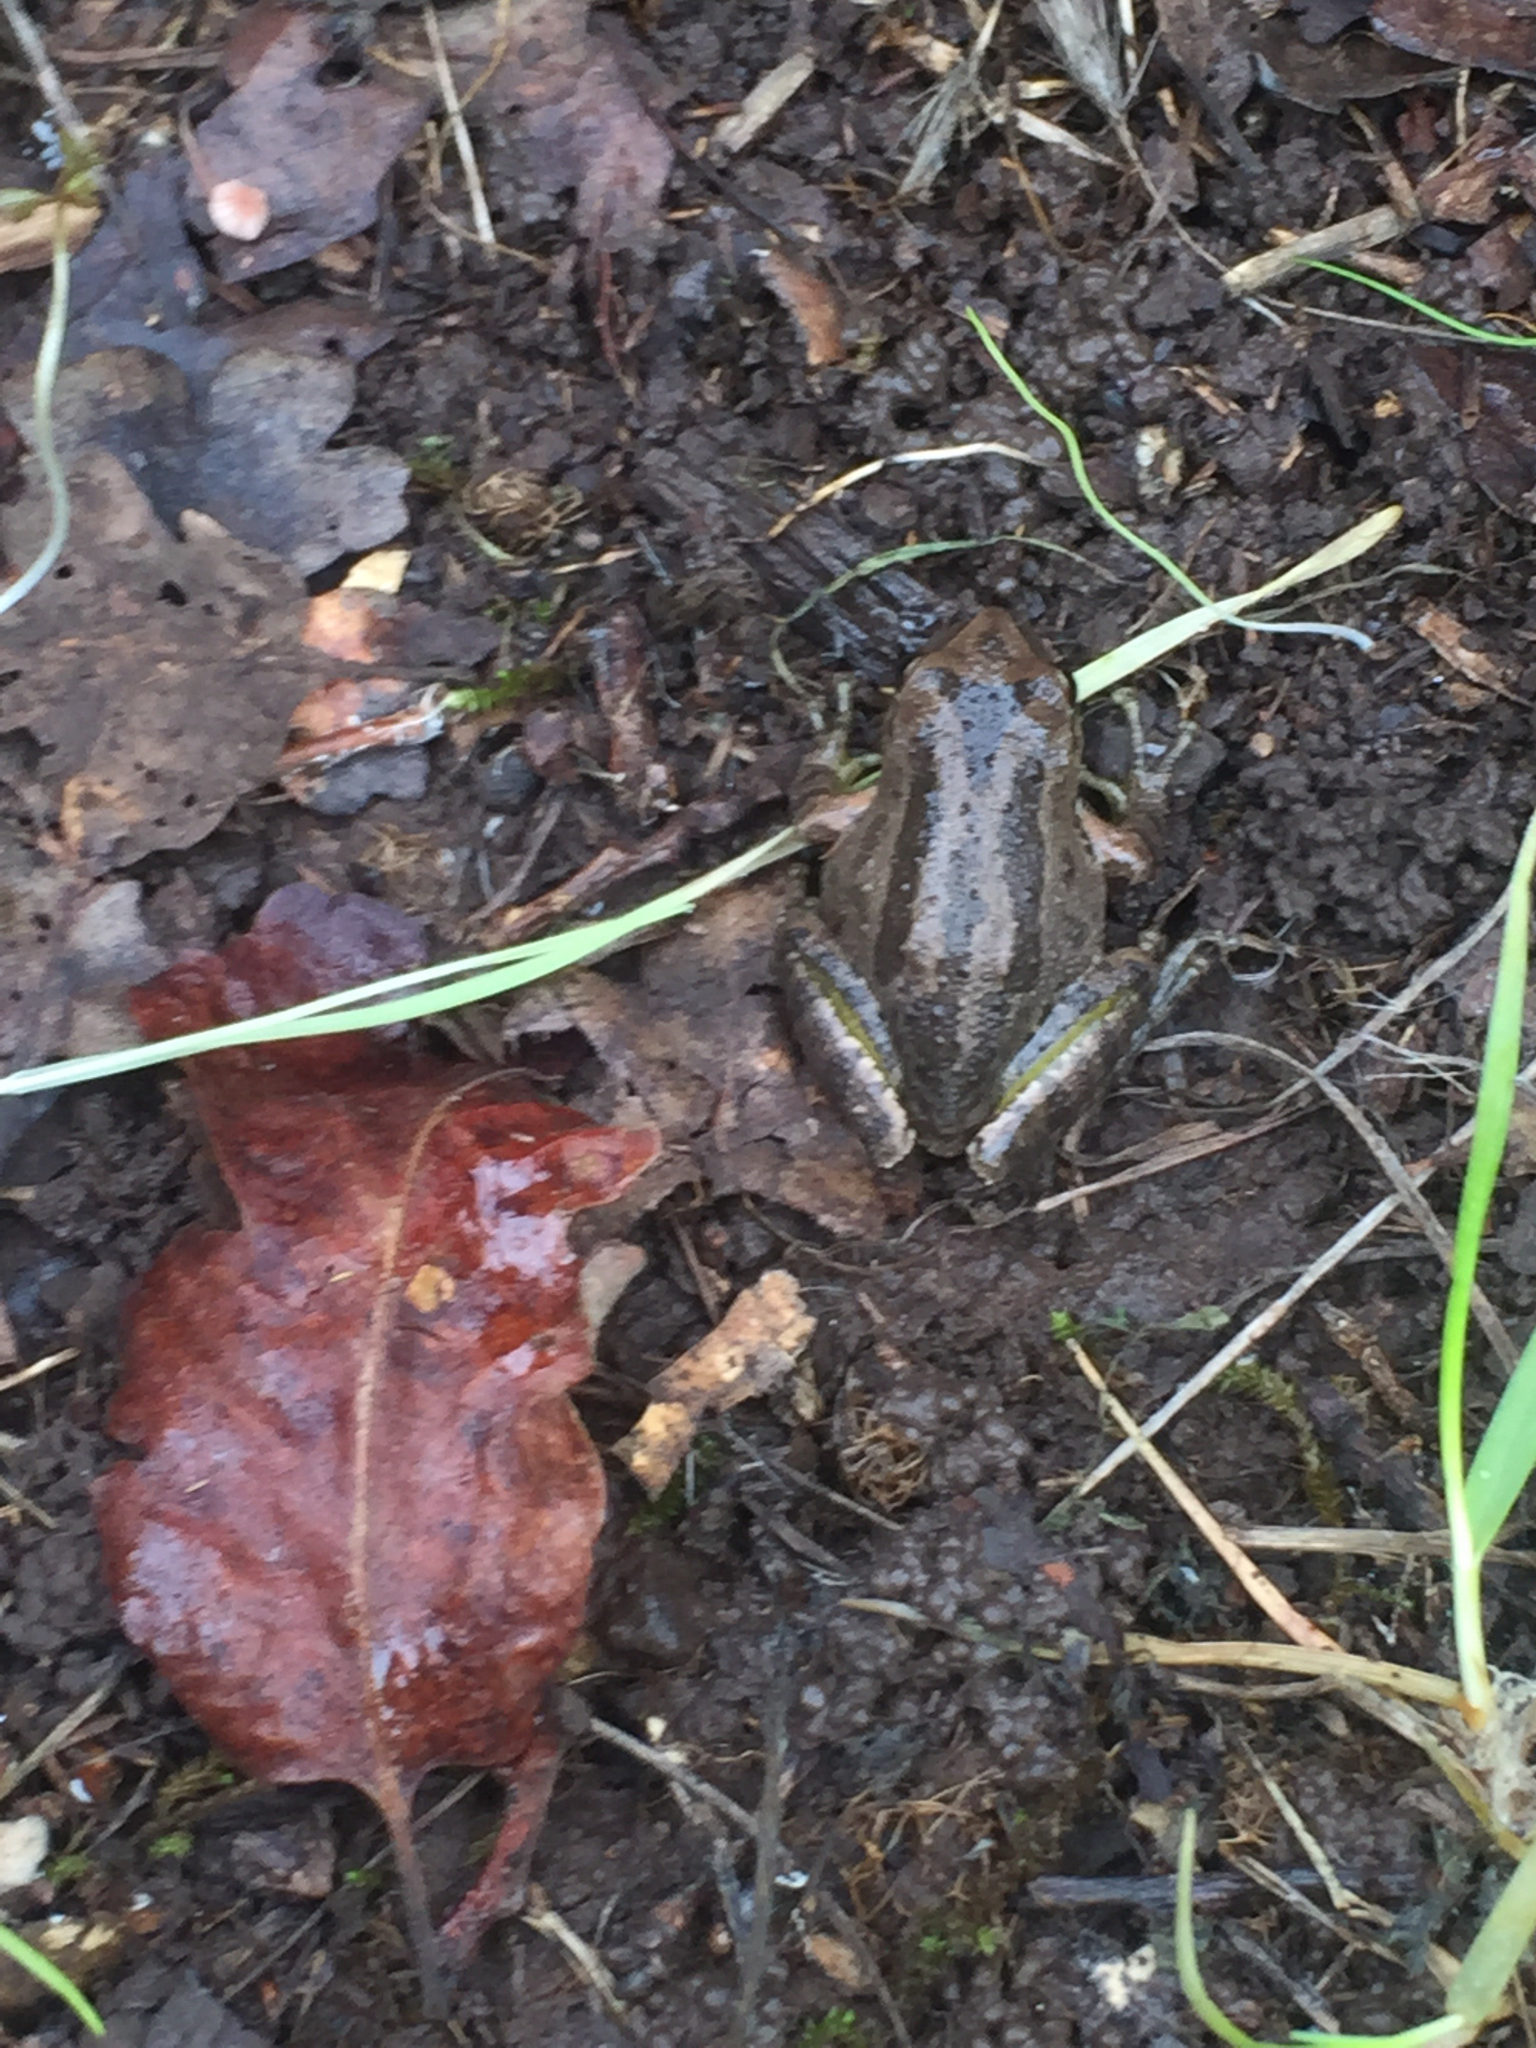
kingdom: Animalia
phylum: Chordata
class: Amphibia
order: Anura
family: Hylidae
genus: Pseudacris
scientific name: Pseudacris regilla
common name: Pacific chorus frog
